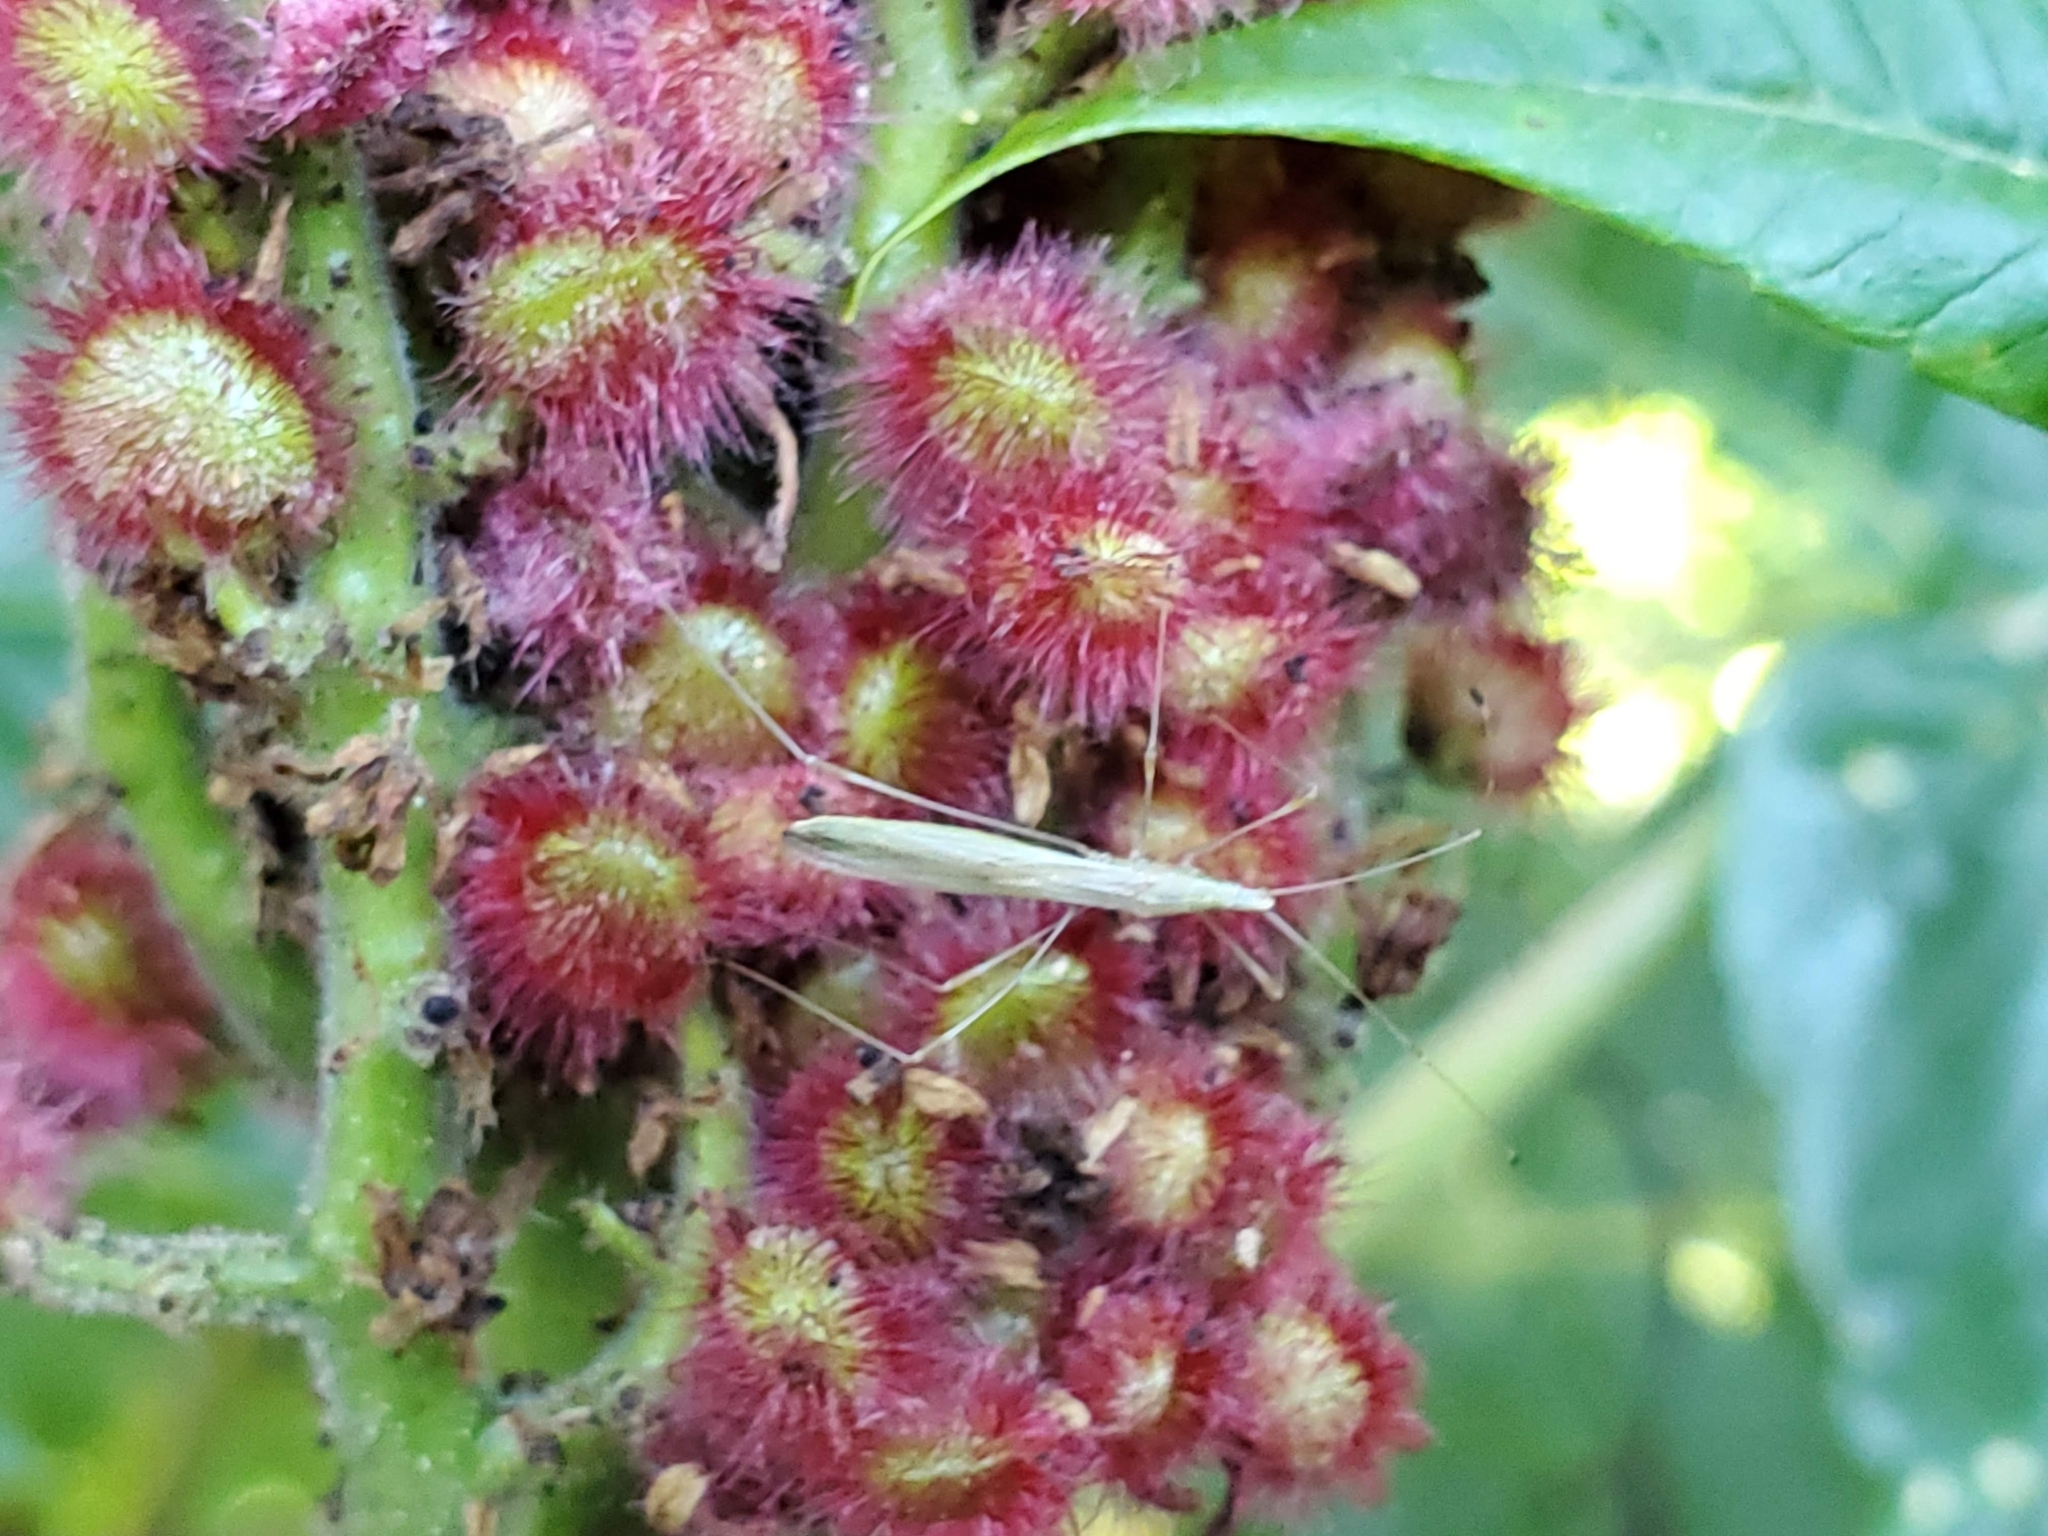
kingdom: Plantae
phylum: Tracheophyta
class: Magnoliopsida
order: Sapindales
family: Anacardiaceae
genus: Rhus
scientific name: Rhus typhina
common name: Staghorn sumac
